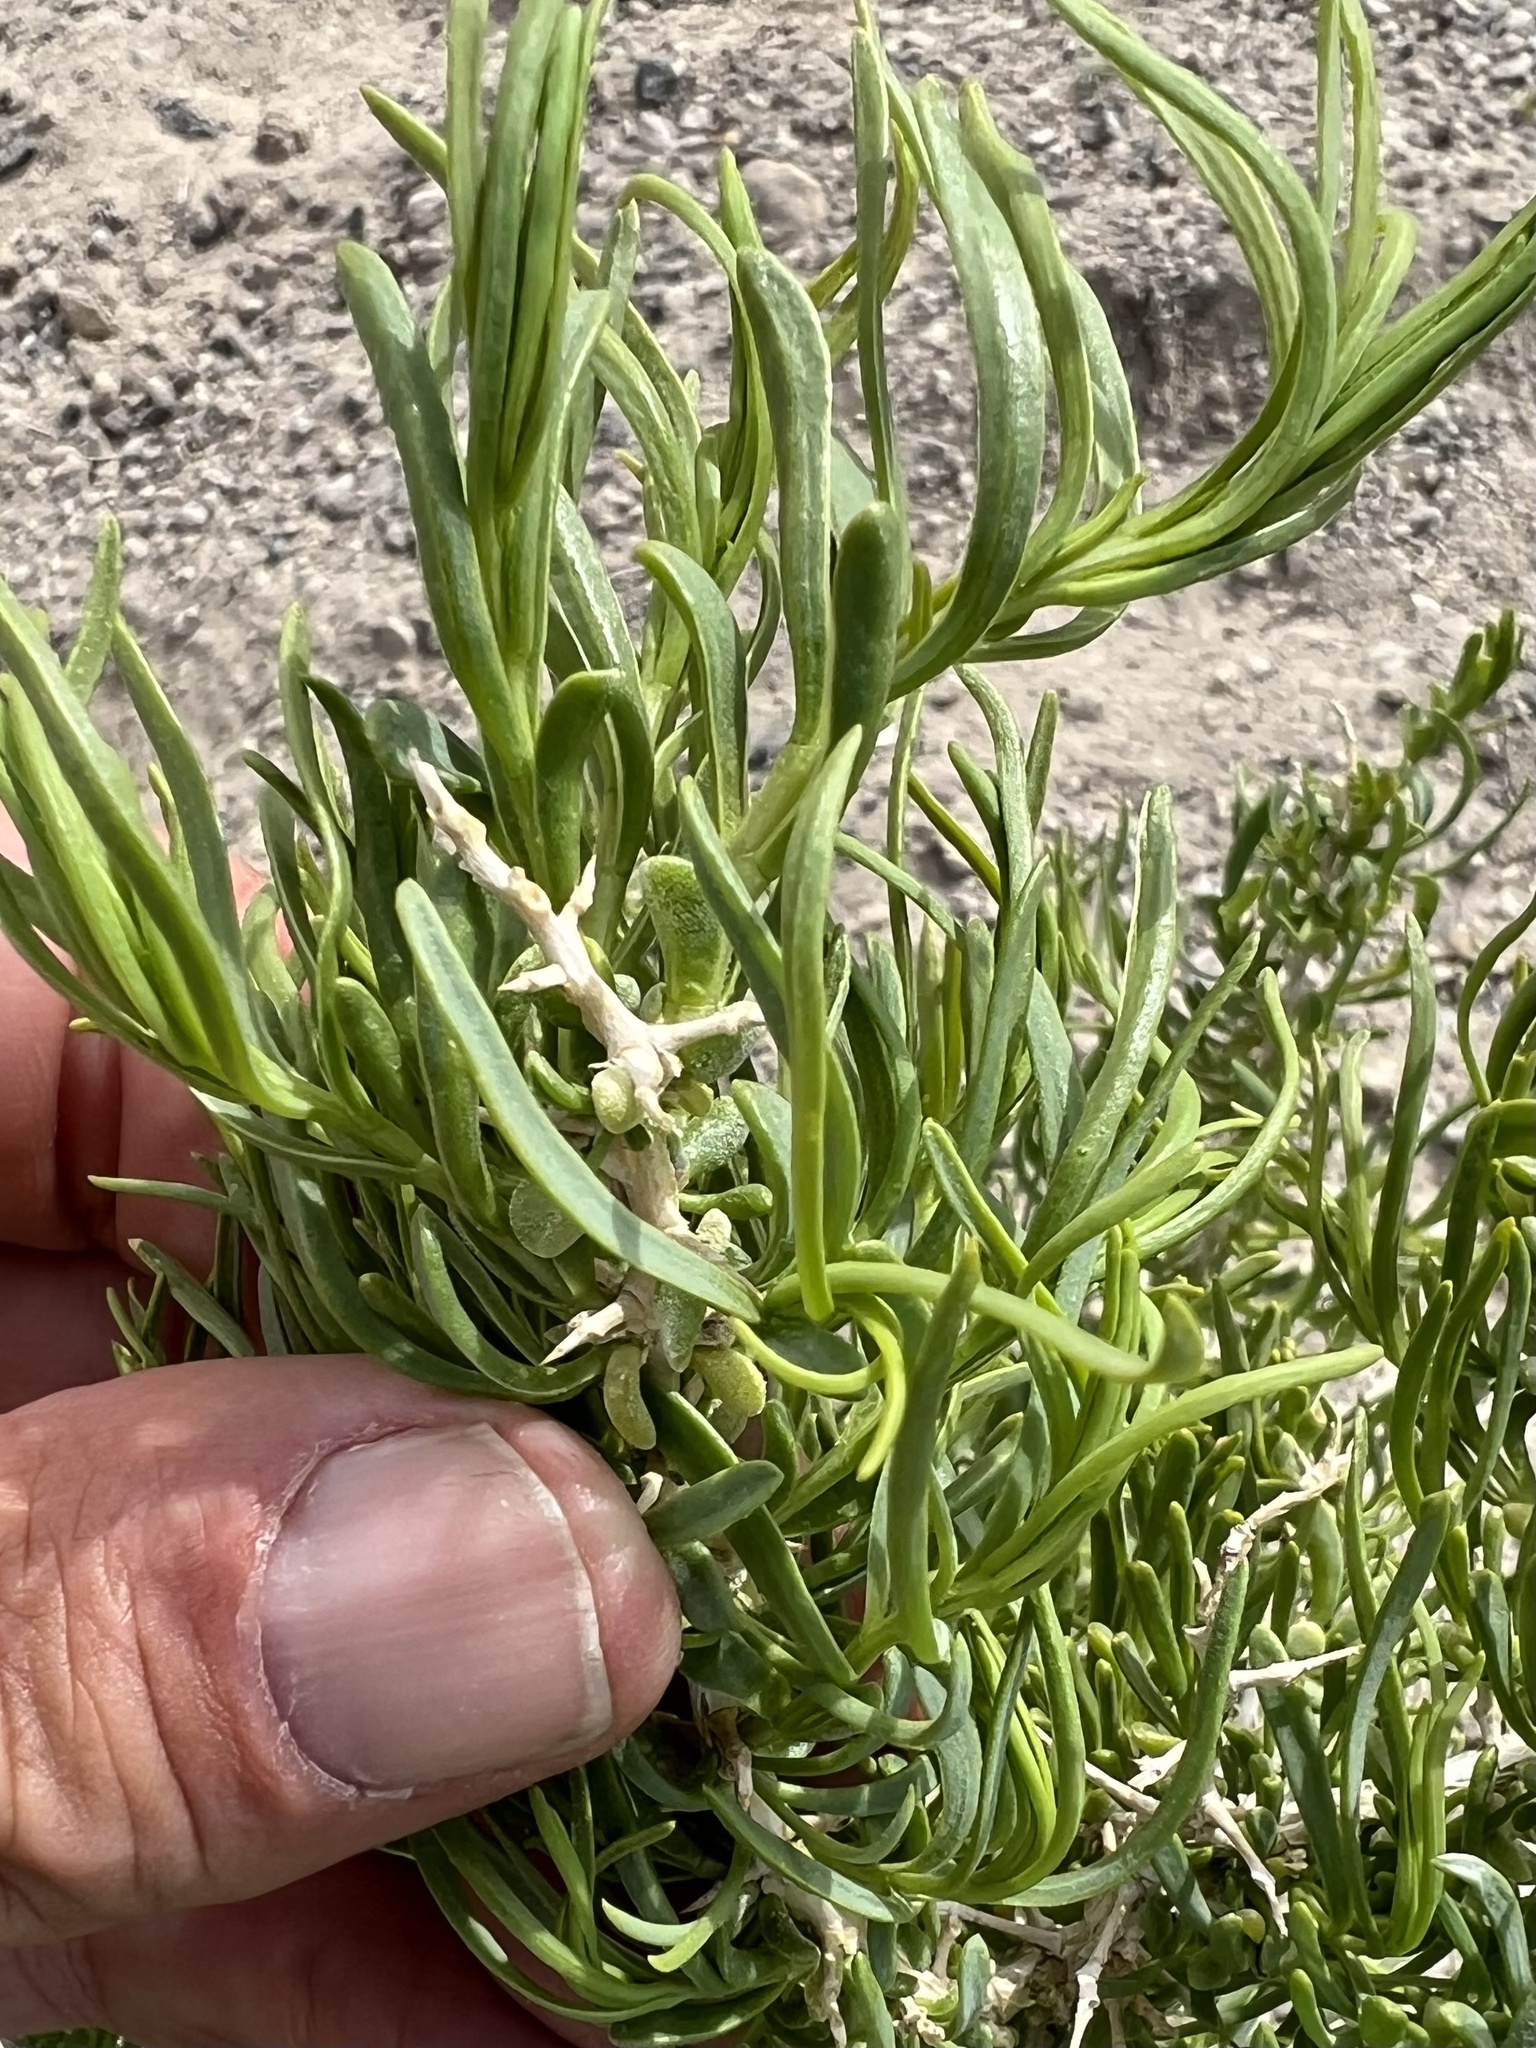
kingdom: Plantae
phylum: Tracheophyta
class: Magnoliopsida
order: Caryophyllales
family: Sarcobataceae
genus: Sarcobatus
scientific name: Sarcobatus vermiculatus
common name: Greasewood
